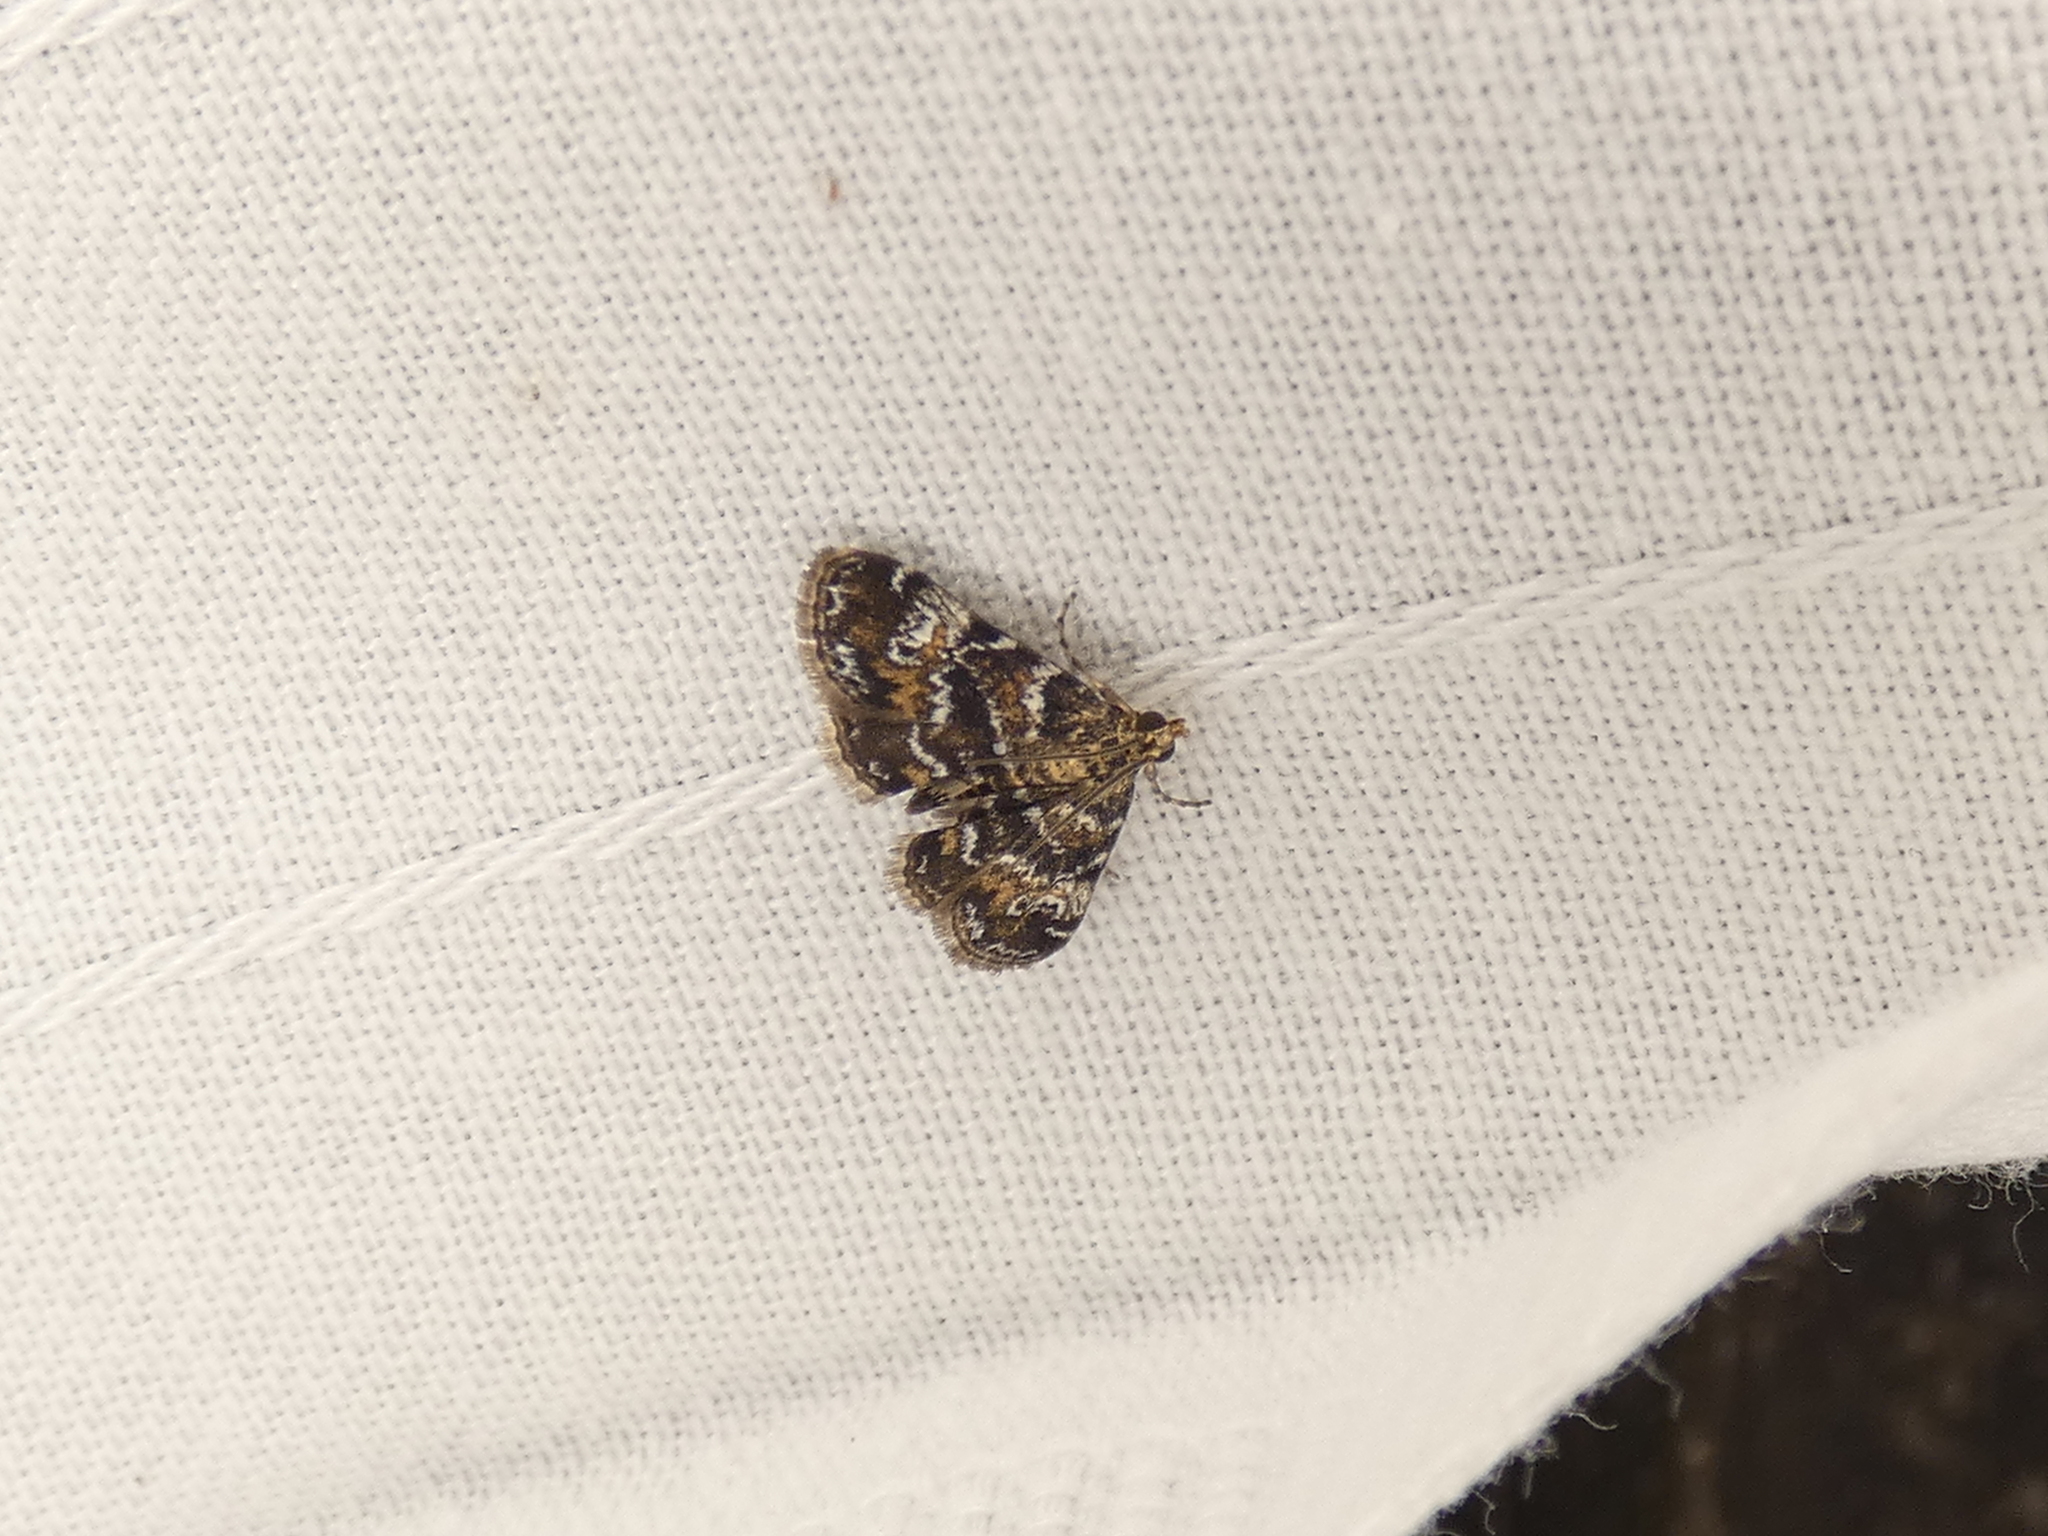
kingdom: Animalia
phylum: Arthropoda
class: Insecta
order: Lepidoptera
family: Crambidae
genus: Elophila
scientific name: Elophila obliteralis
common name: Waterlily leafcutter moth
